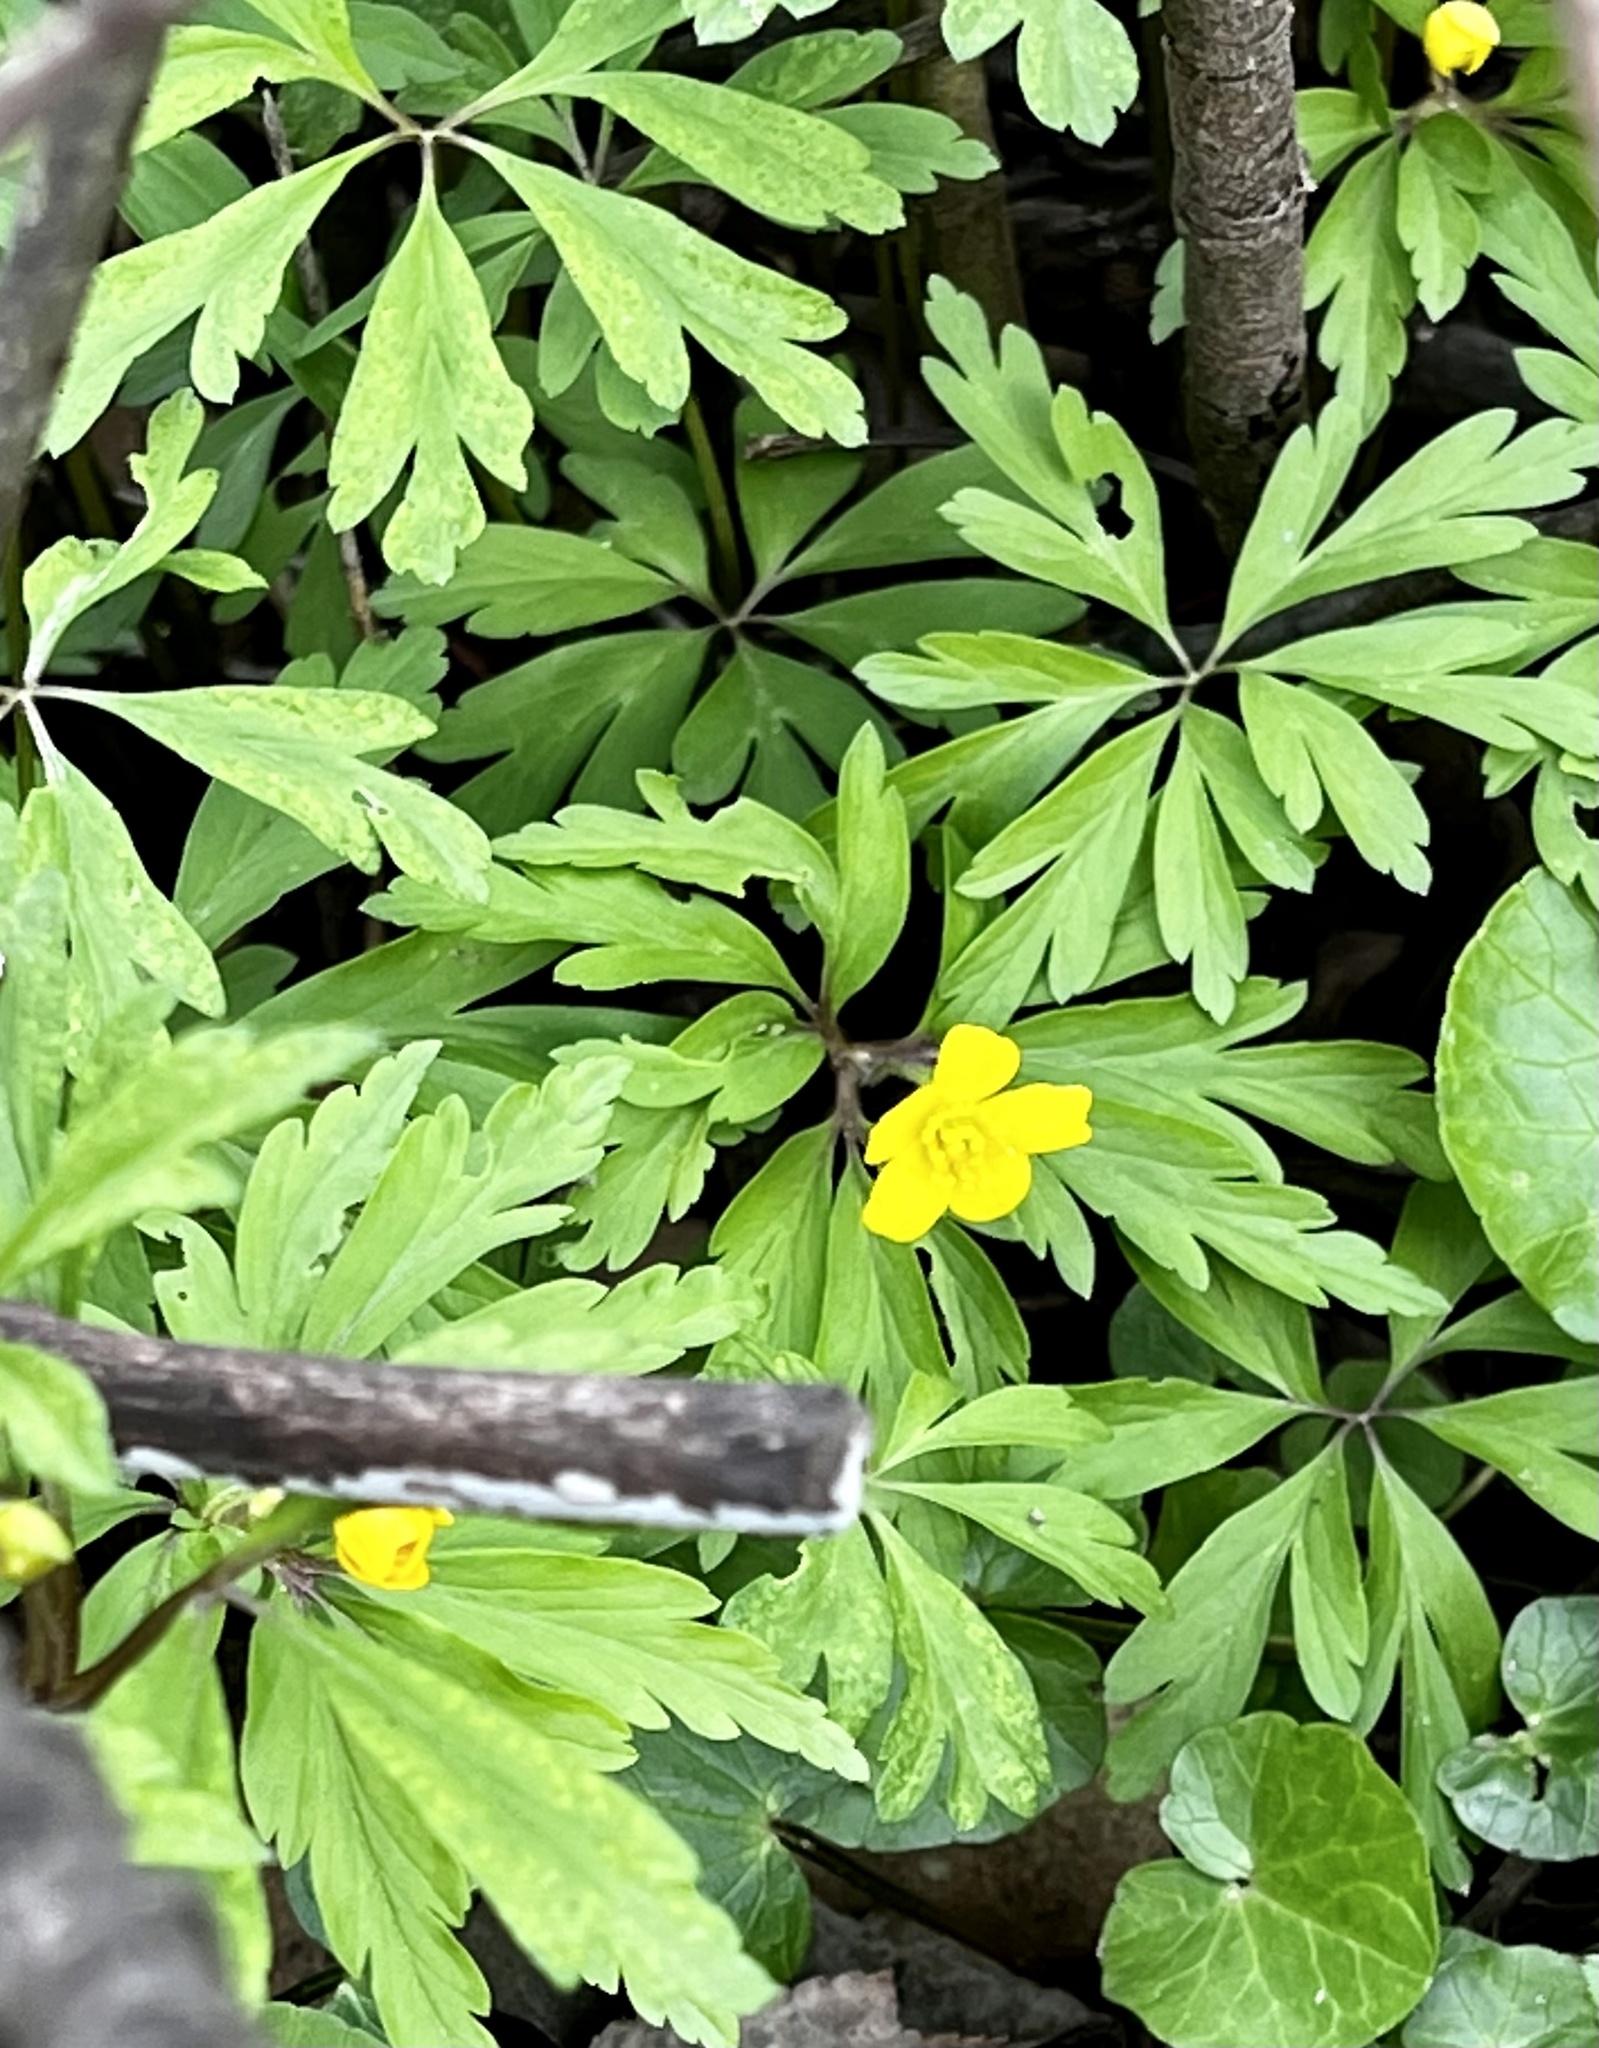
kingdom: Plantae
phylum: Tracheophyta
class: Magnoliopsida
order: Ranunculales
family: Ranunculaceae
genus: Anemone
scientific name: Anemone ranunculoides
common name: Yellow anemone
